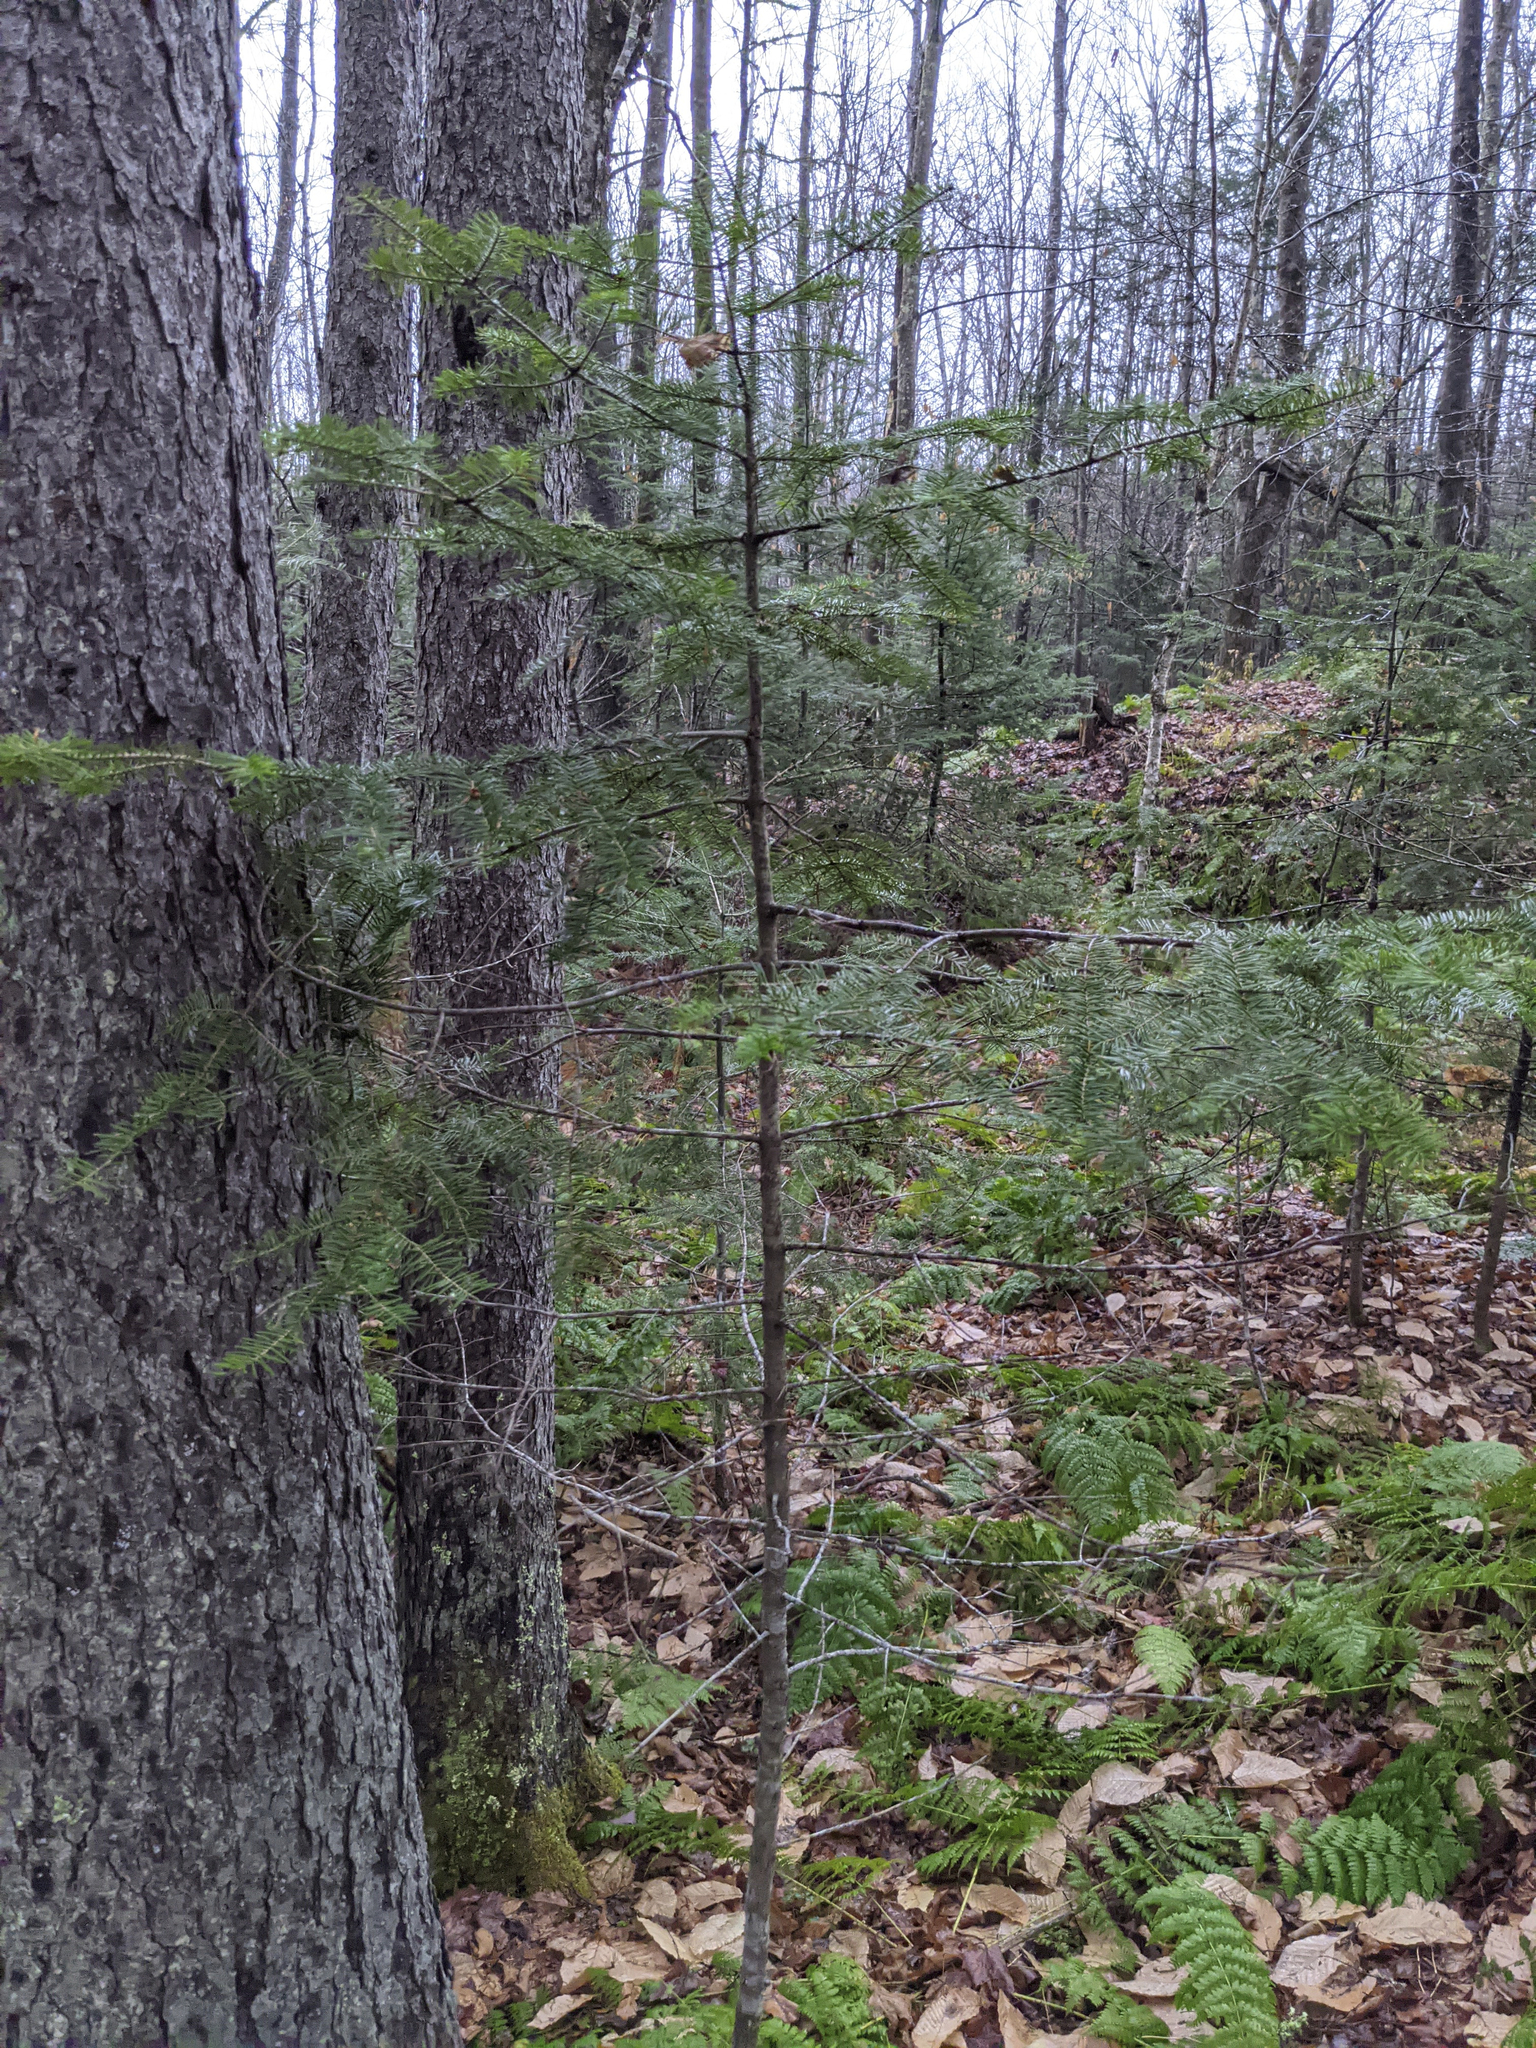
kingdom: Plantae
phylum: Tracheophyta
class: Pinopsida
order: Pinales
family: Pinaceae
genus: Abies
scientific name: Abies balsamea
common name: Balsam fir
